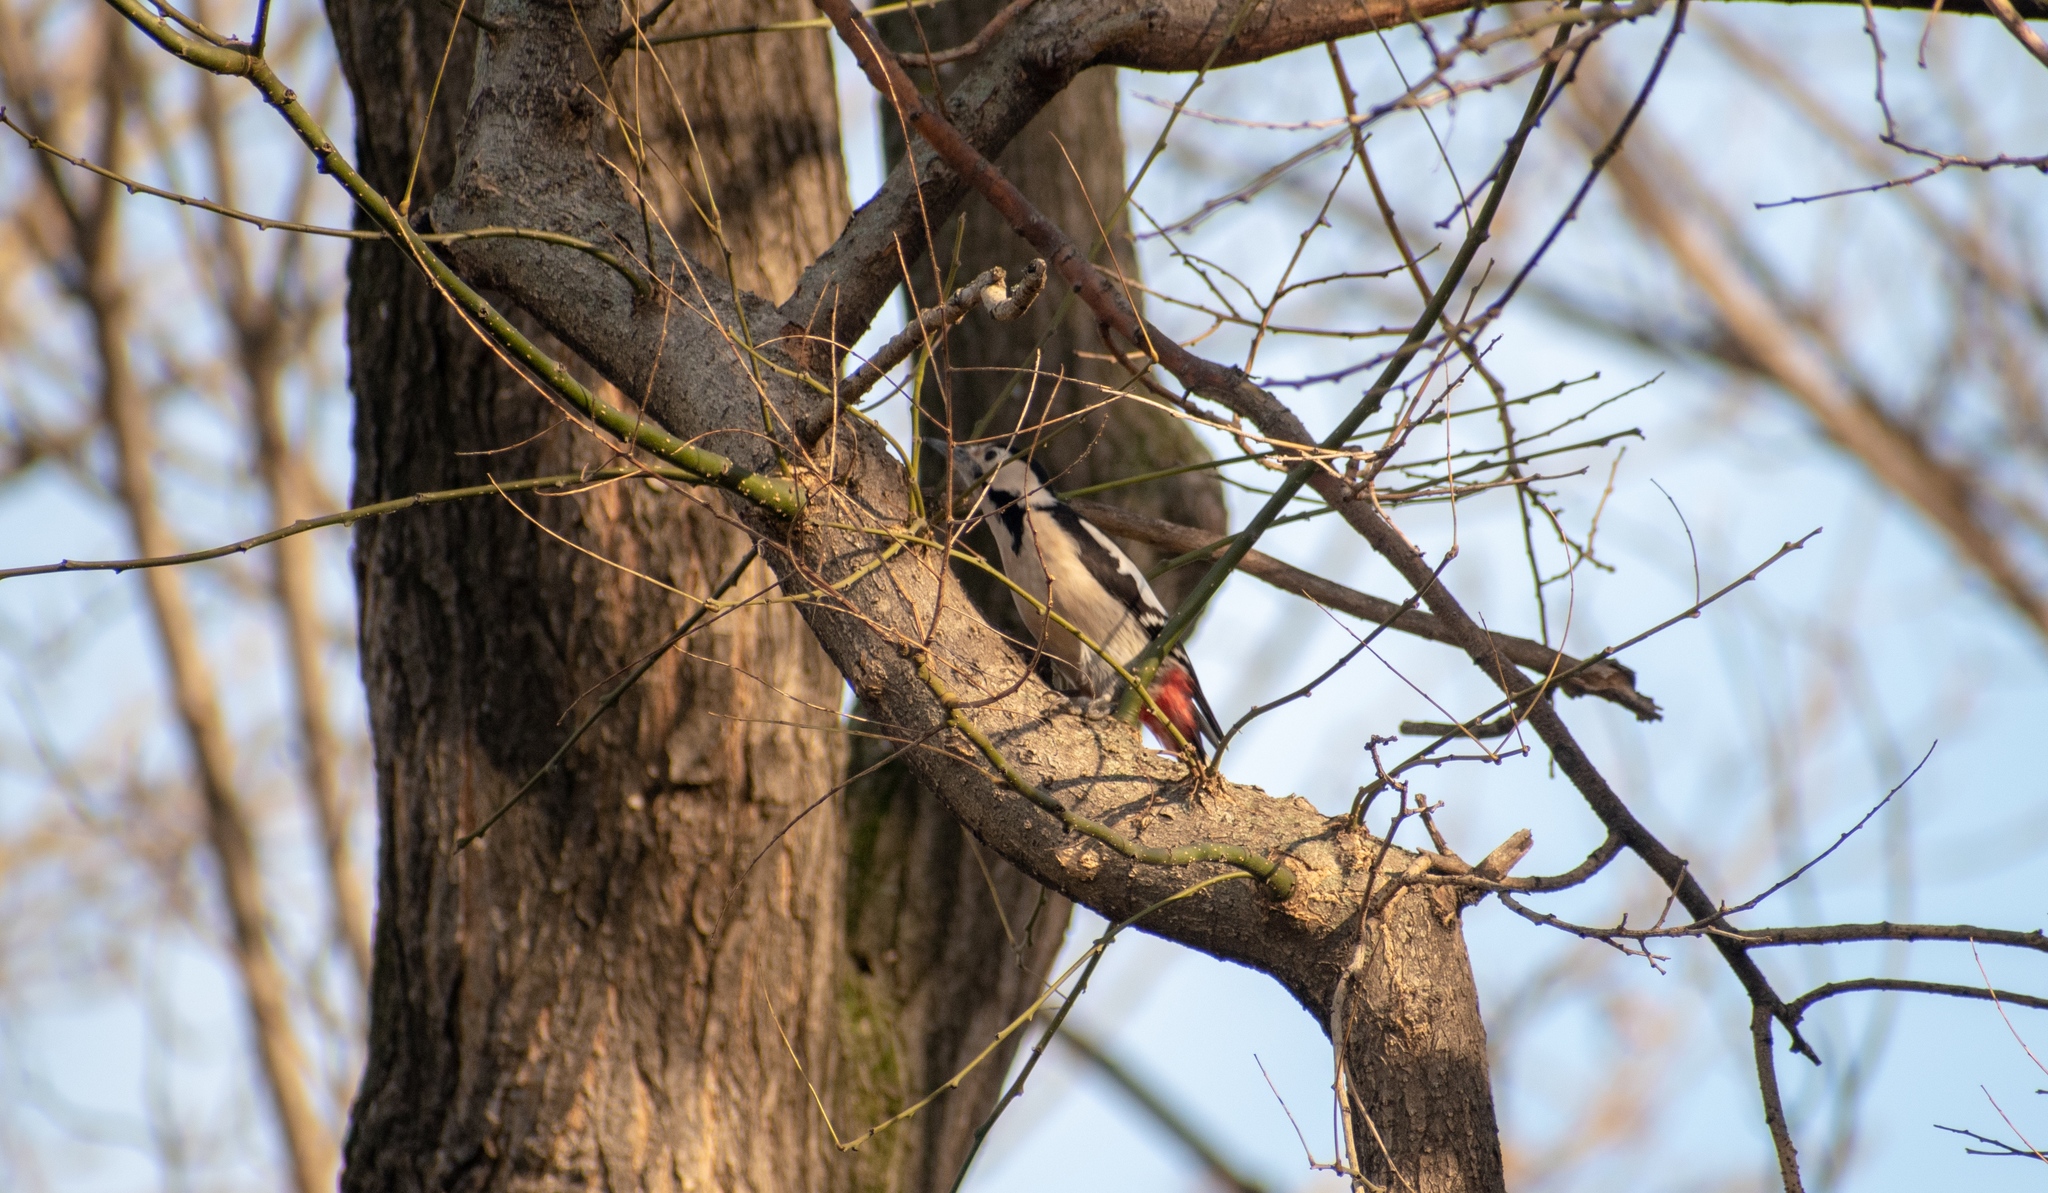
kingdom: Animalia
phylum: Chordata
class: Aves
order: Piciformes
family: Picidae
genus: Dendrocopos
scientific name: Dendrocopos syriacus
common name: Syrian woodpecker
